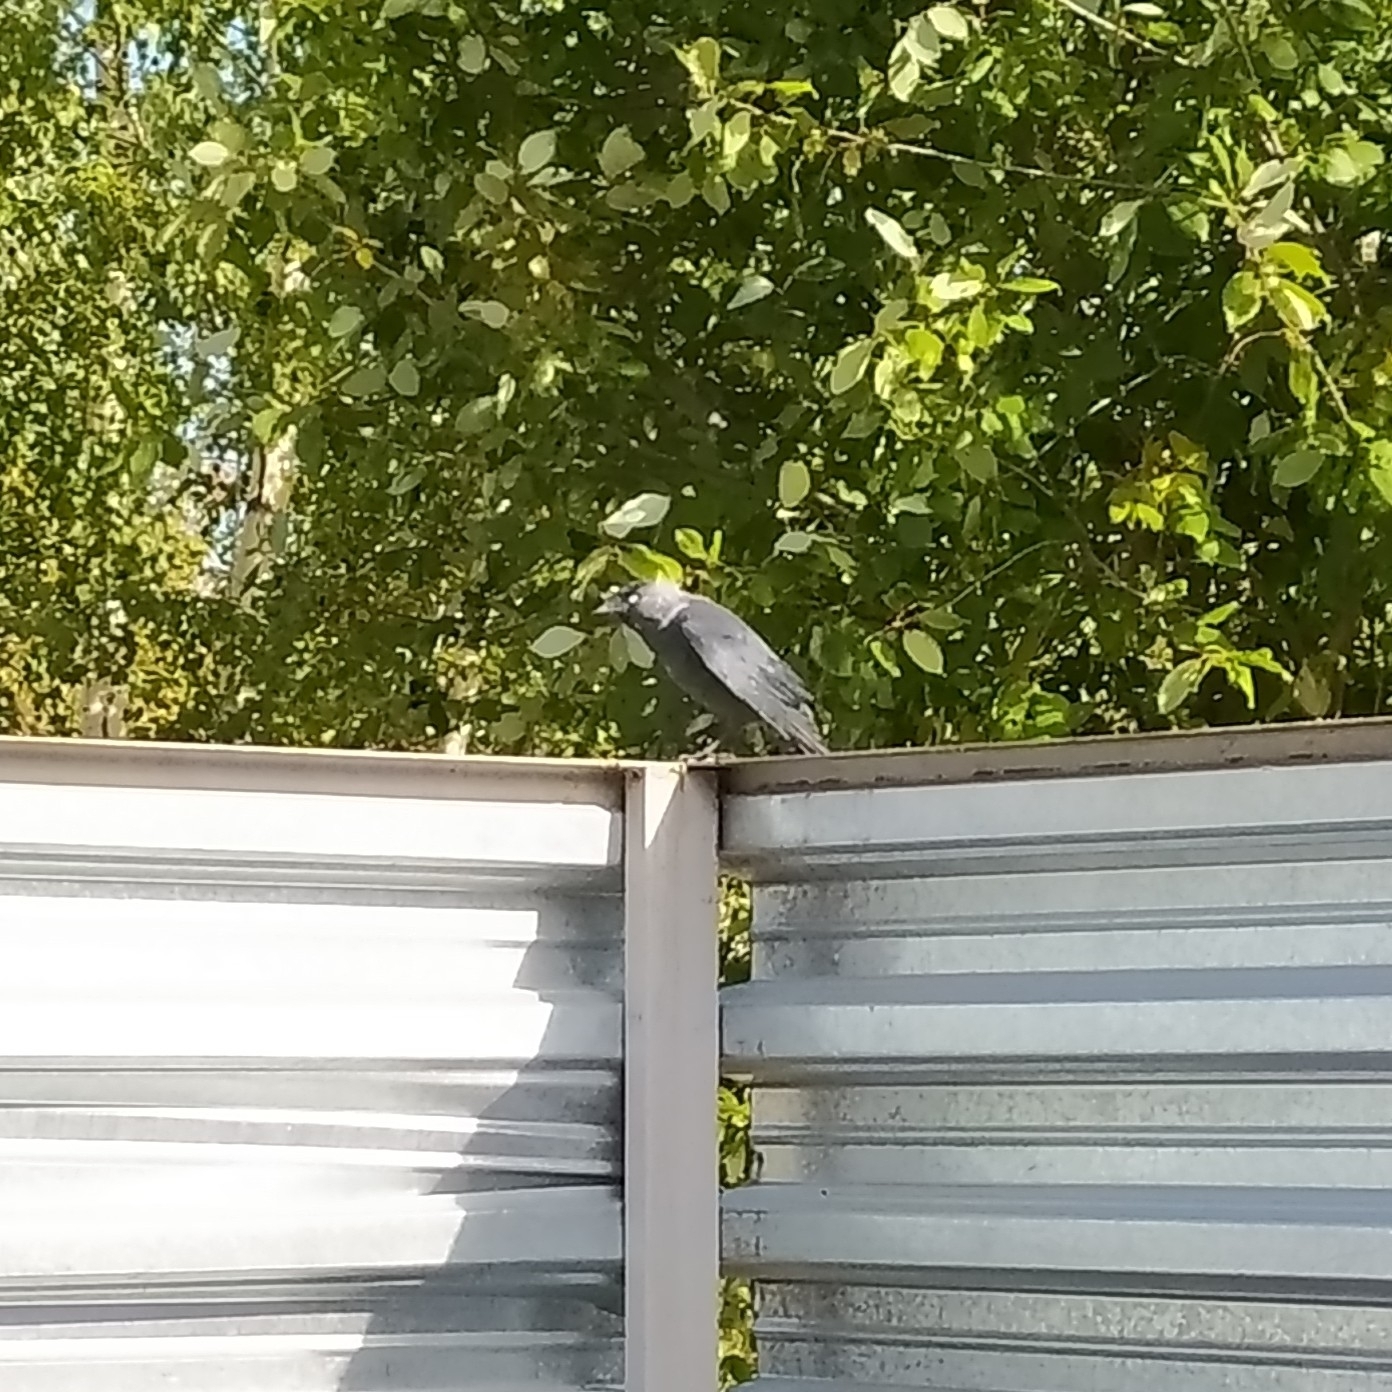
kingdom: Animalia
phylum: Chordata
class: Aves
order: Passeriformes
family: Corvidae
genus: Coloeus
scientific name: Coloeus monedula
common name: Western jackdaw
